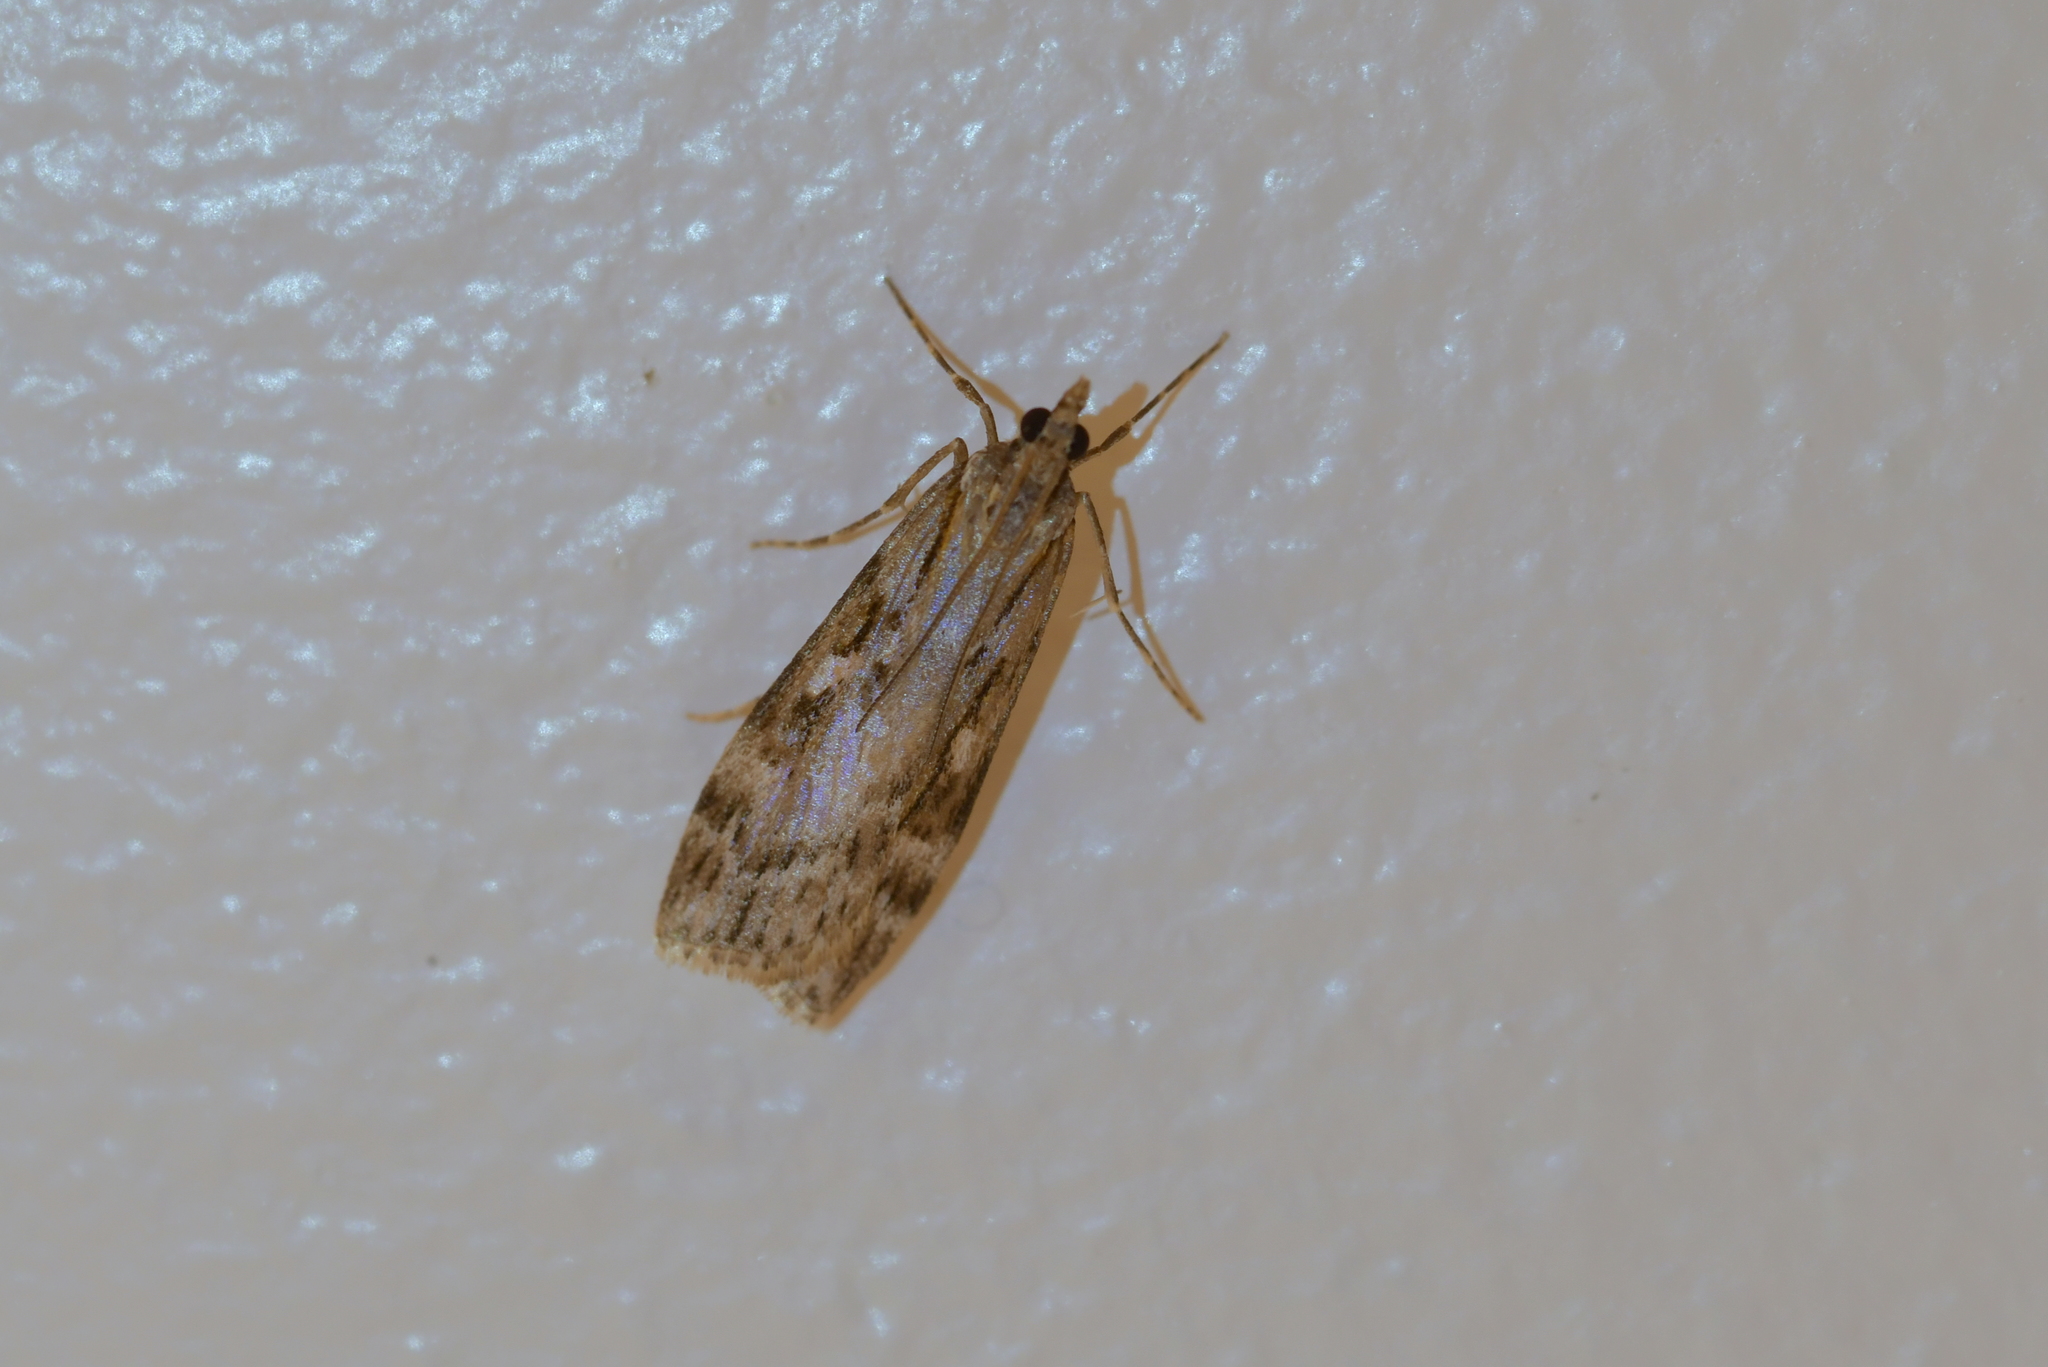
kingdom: Animalia
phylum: Arthropoda
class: Insecta
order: Lepidoptera
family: Crambidae
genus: Scoparia
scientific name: Scoparia halopis
